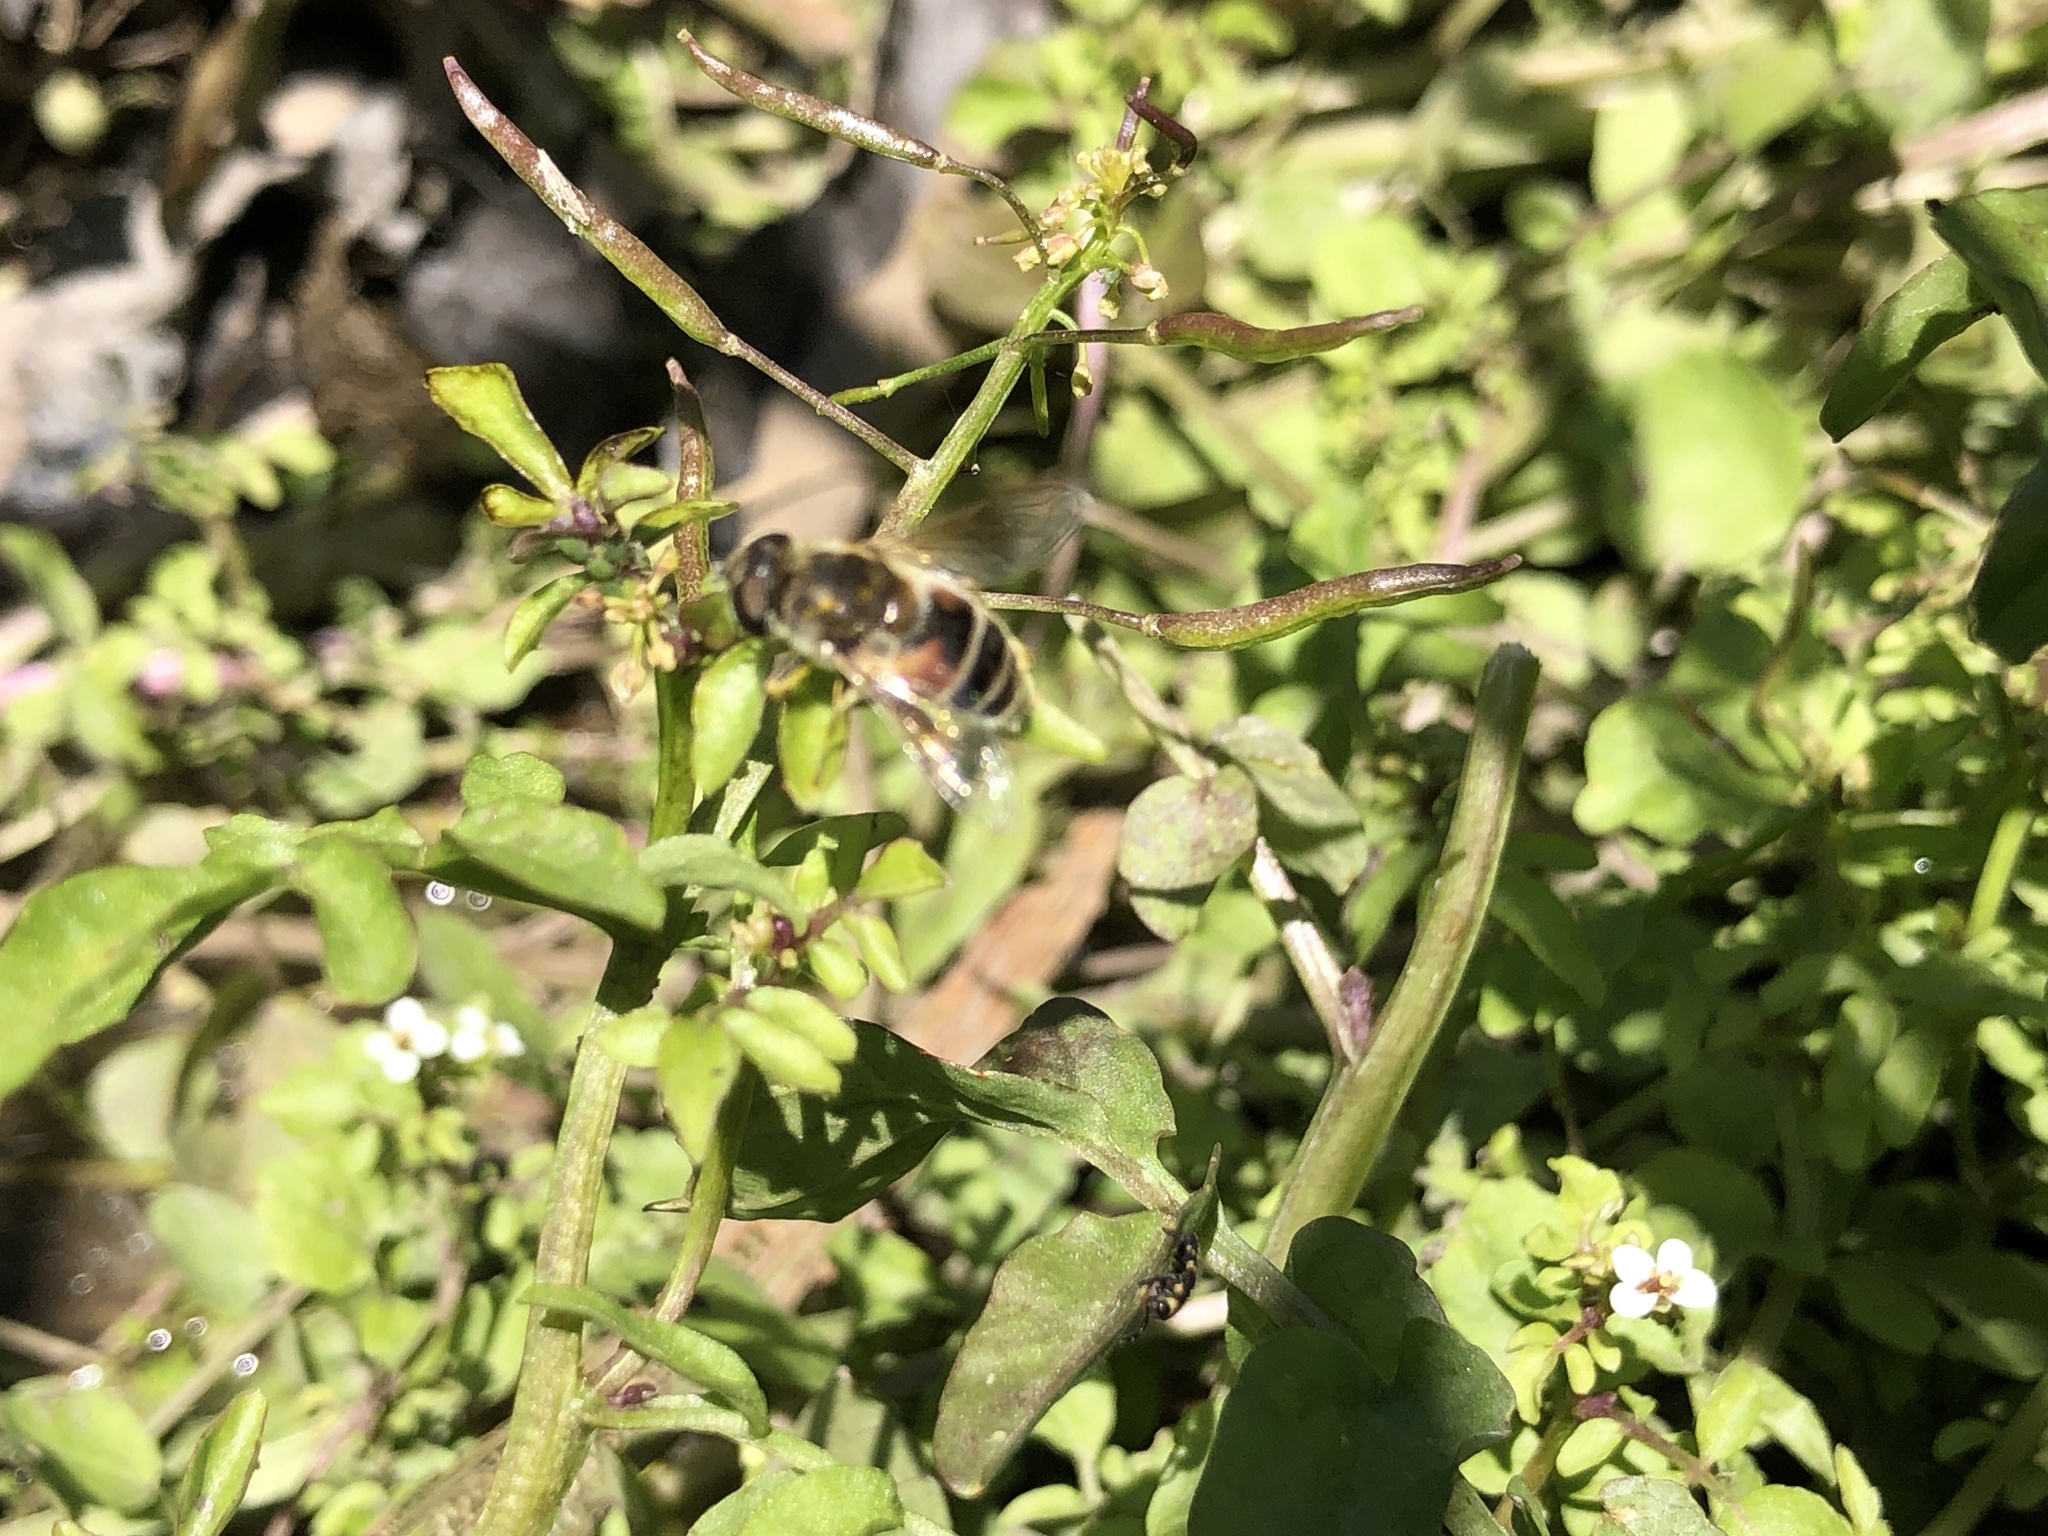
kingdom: Animalia
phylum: Arthropoda
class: Insecta
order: Diptera
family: Syrphidae
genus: Eristalis
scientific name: Eristalis arbustorum
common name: Hover fly
